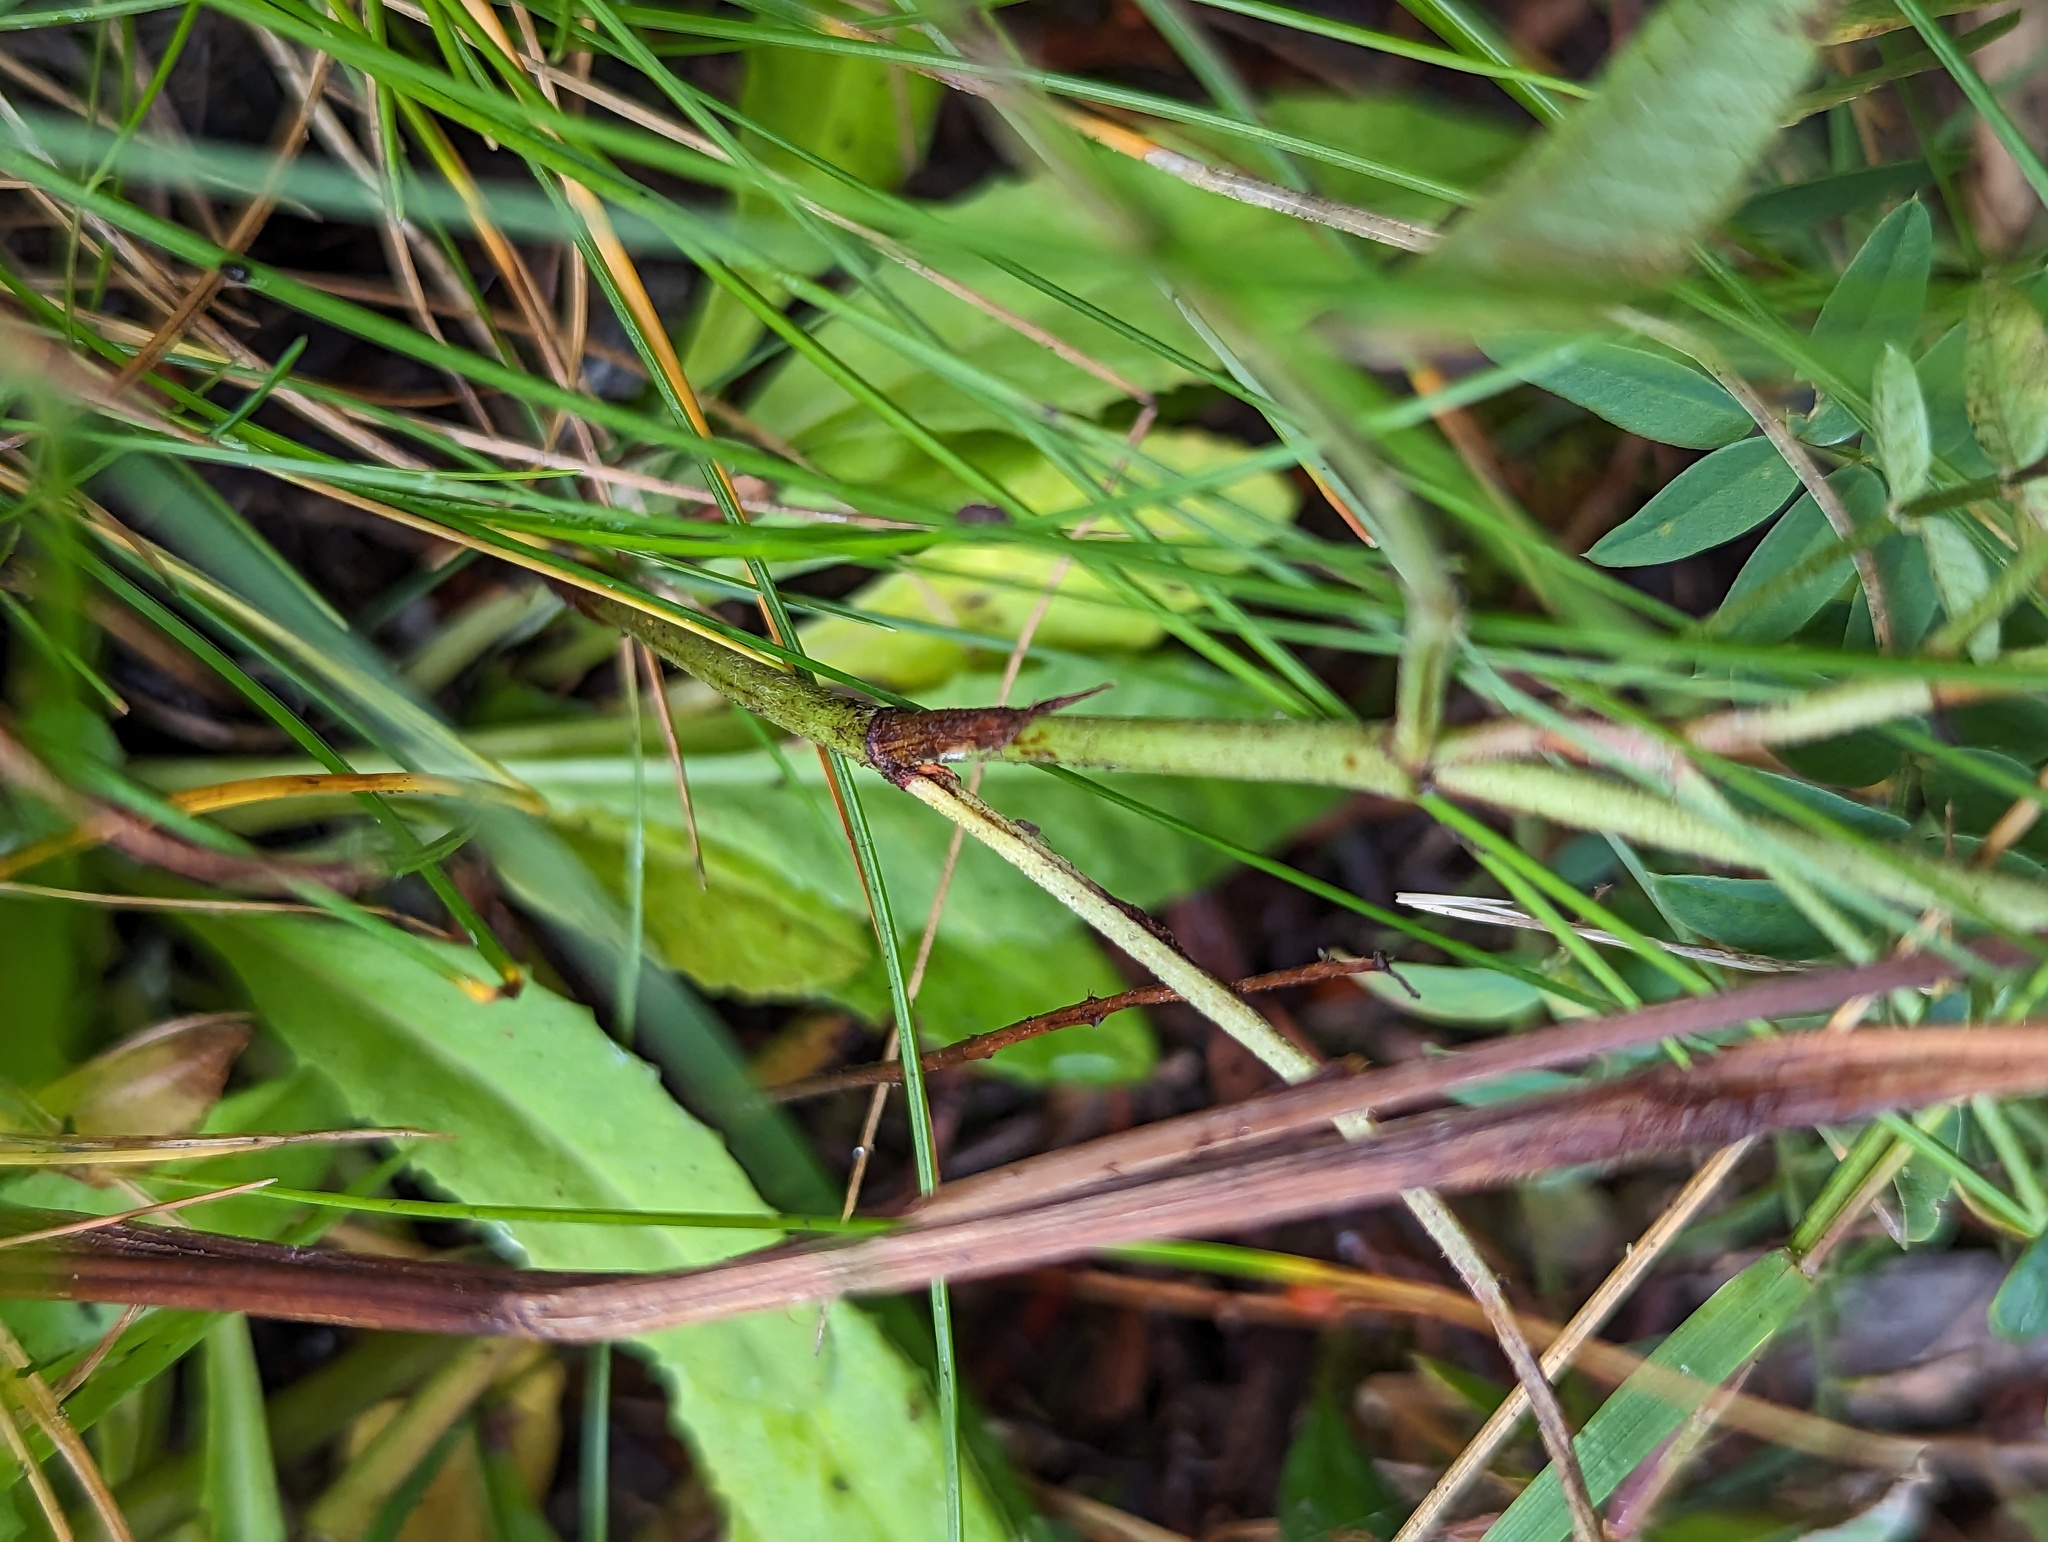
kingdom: Plantae
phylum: Tracheophyta
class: Magnoliopsida
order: Ericales
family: Primulaceae
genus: Primula
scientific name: Primula laurentiana
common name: Bird-eye primrose
